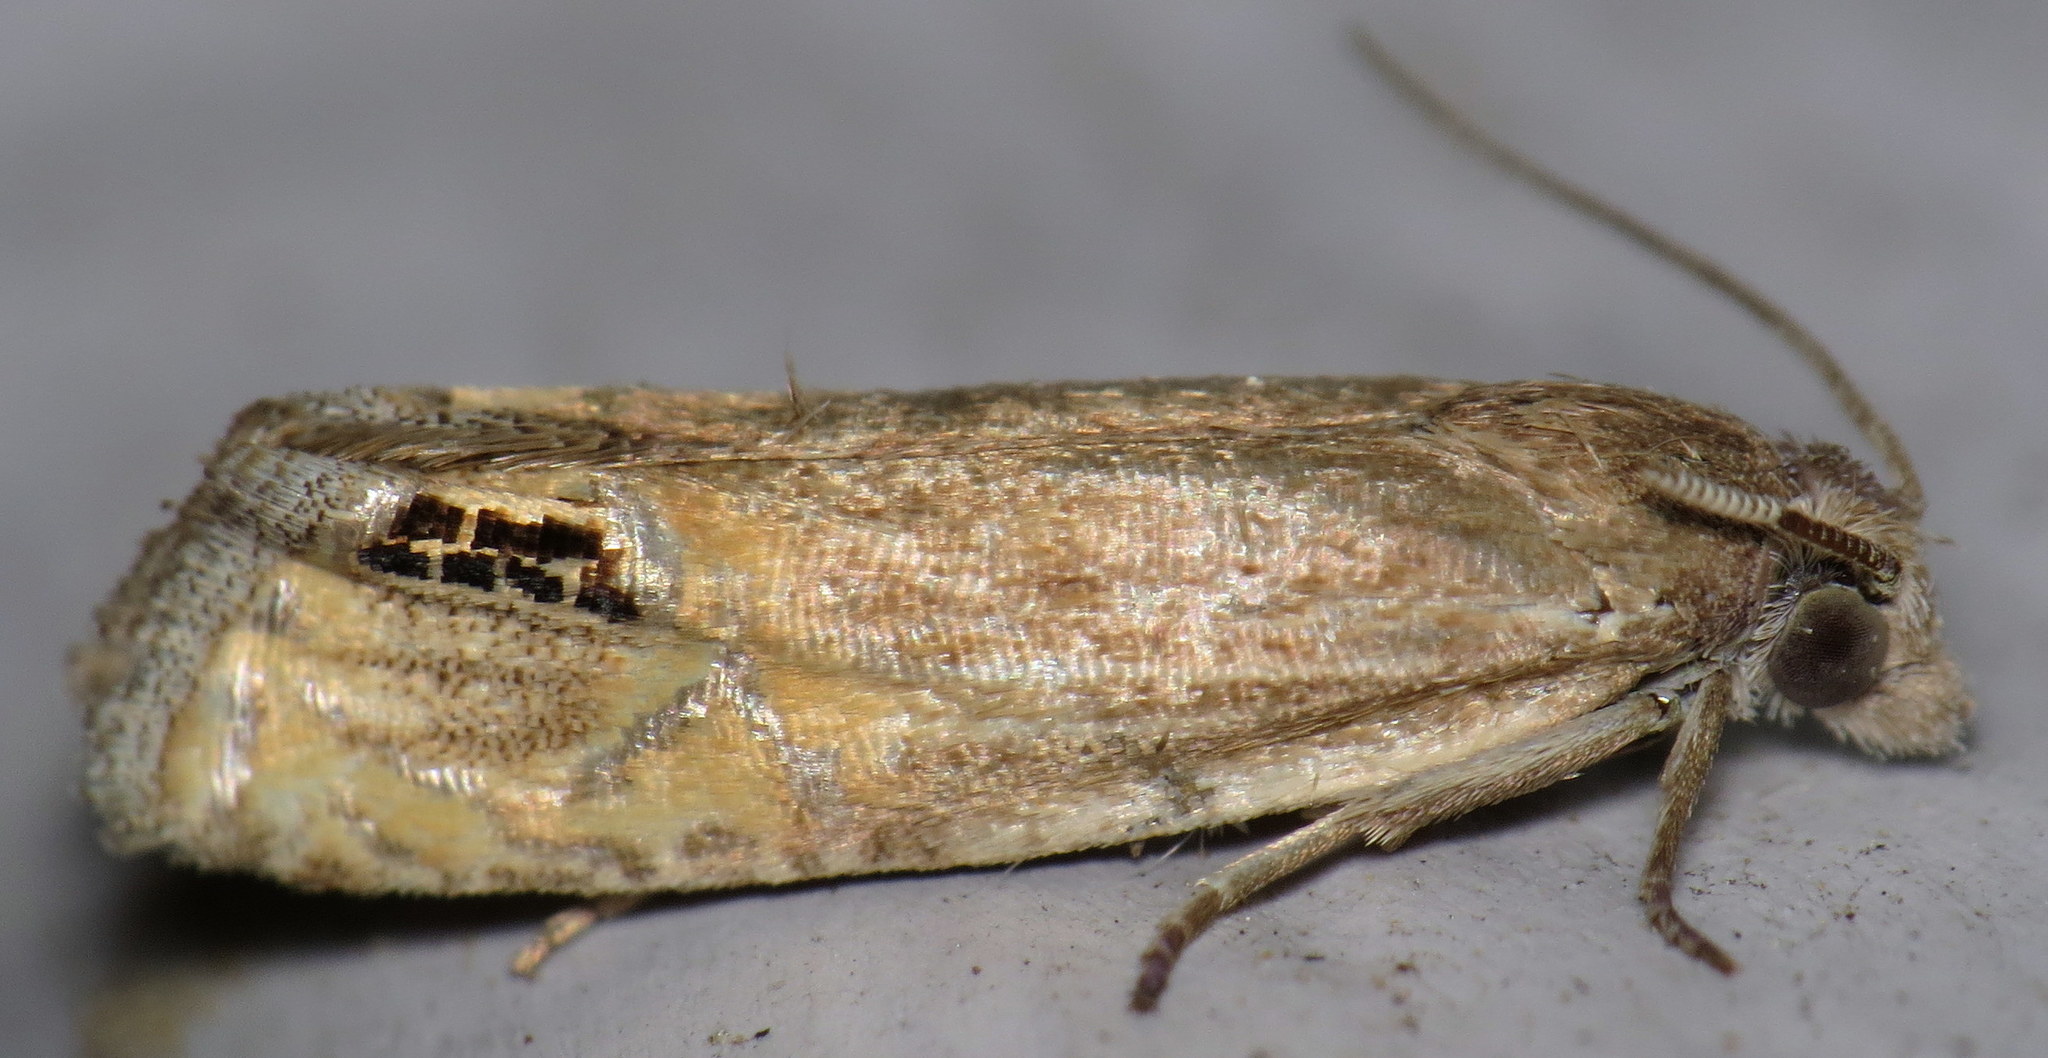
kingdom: Animalia
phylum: Arthropoda
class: Insecta
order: Lepidoptera
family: Tortricidae
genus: Eucosma
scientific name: Eucosma autumnana
